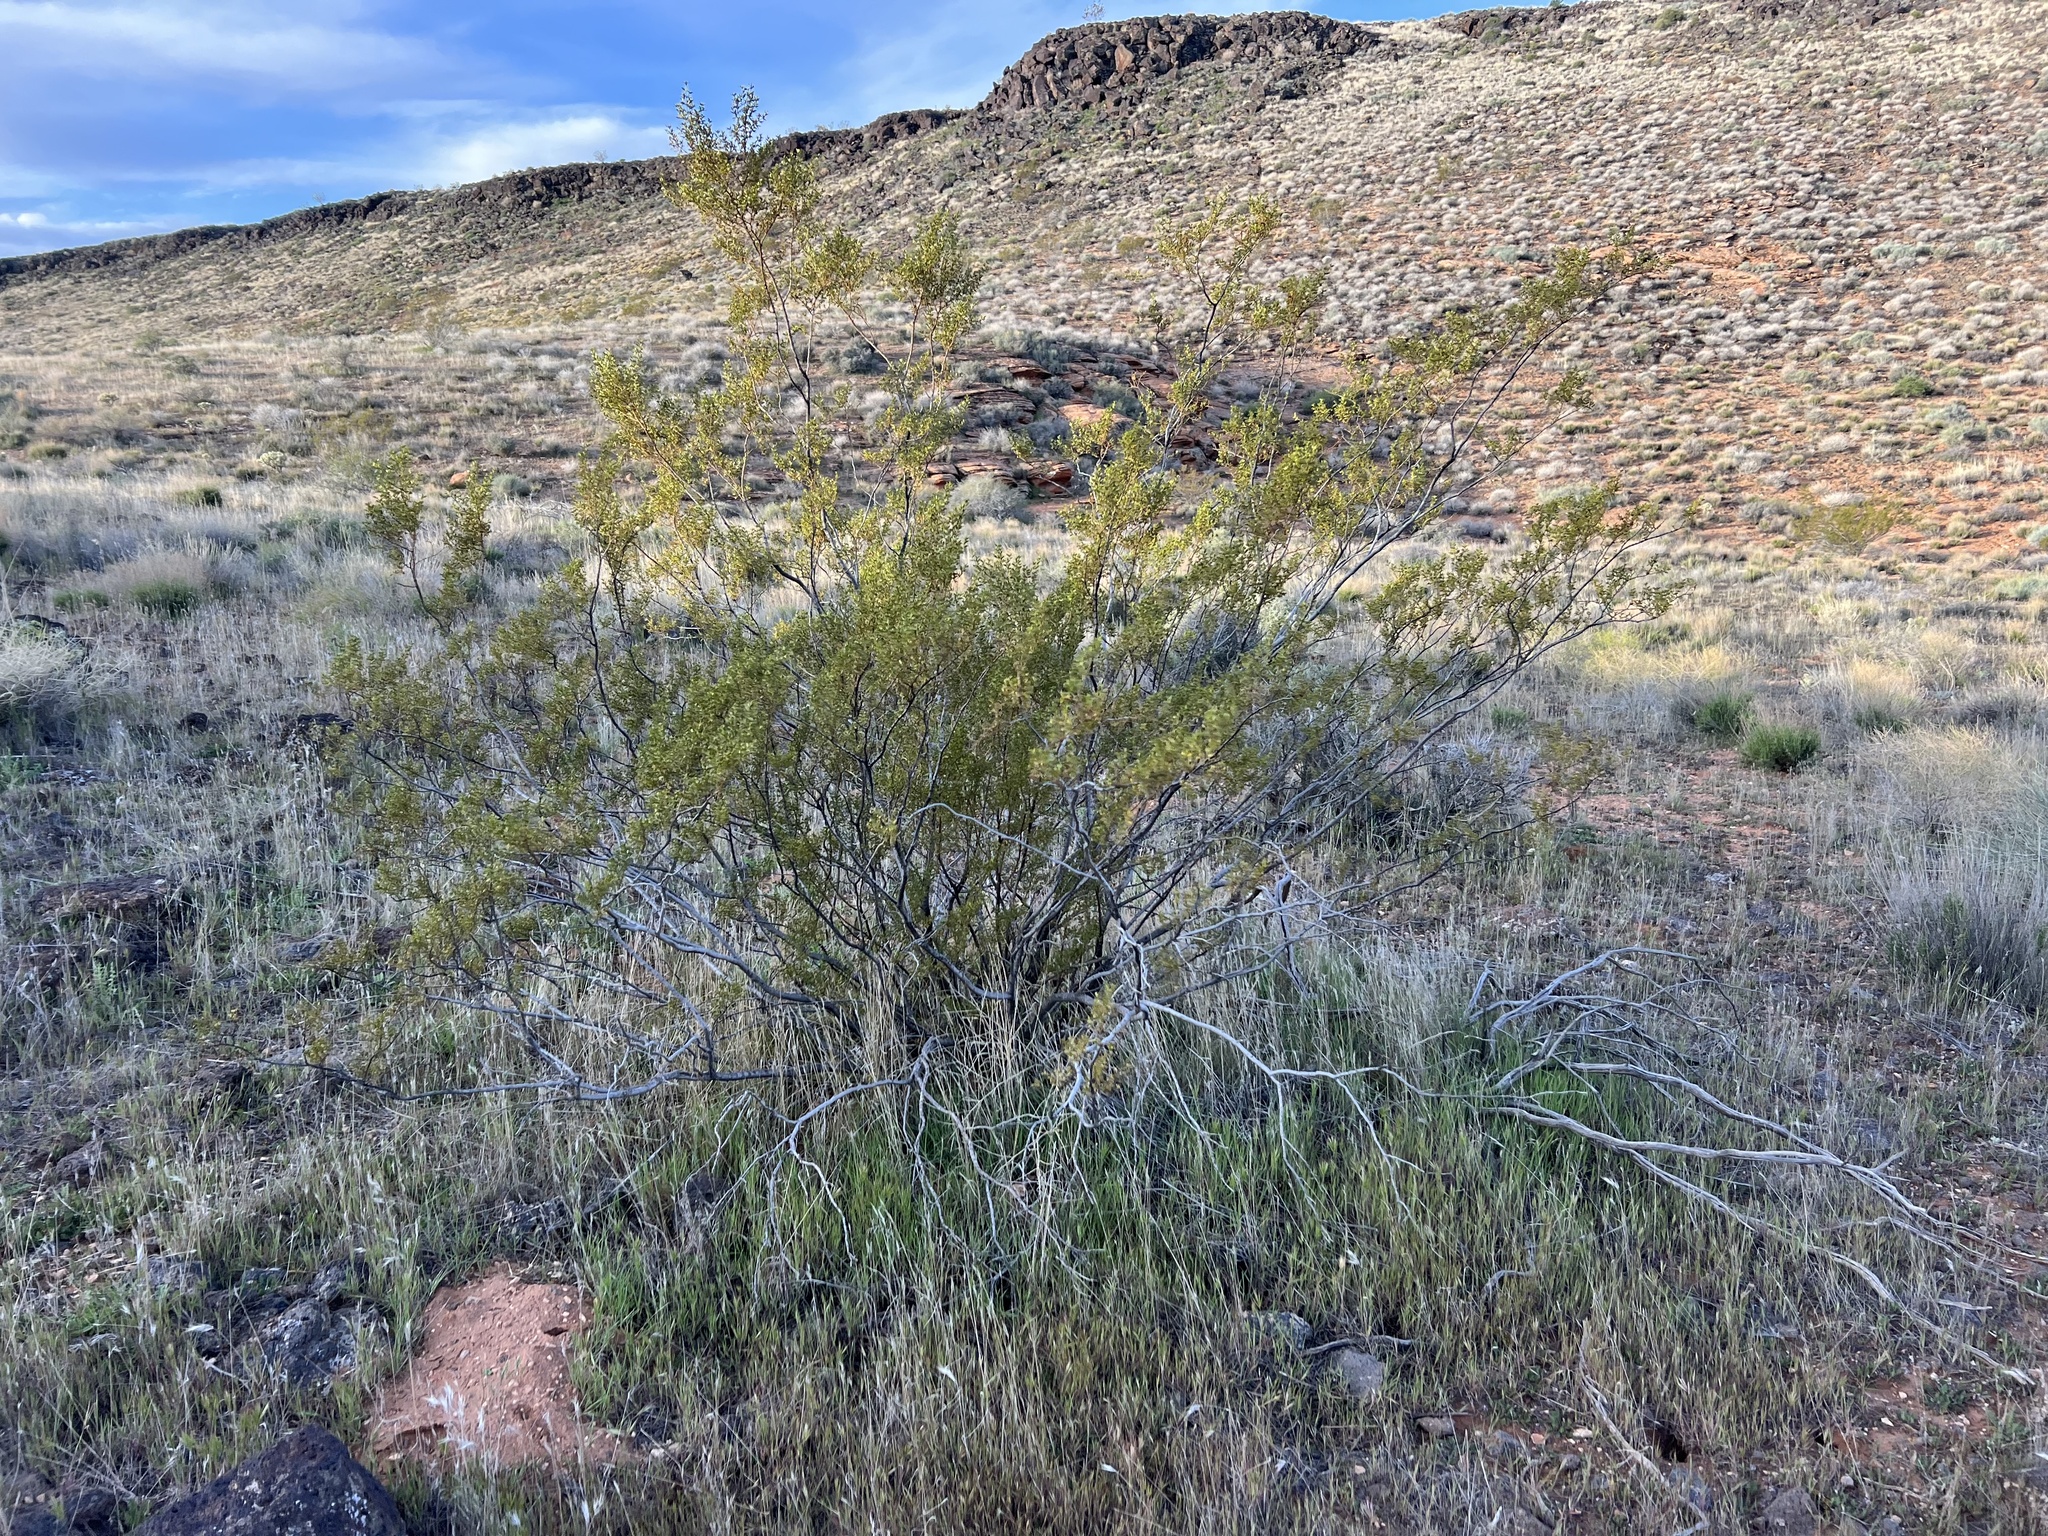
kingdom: Plantae
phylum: Tracheophyta
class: Magnoliopsida
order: Zygophyllales
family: Zygophyllaceae
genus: Larrea
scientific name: Larrea tridentata
